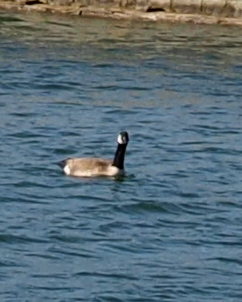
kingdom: Animalia
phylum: Chordata
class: Aves
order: Anseriformes
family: Anatidae
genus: Branta
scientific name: Branta canadensis
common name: Canada goose
